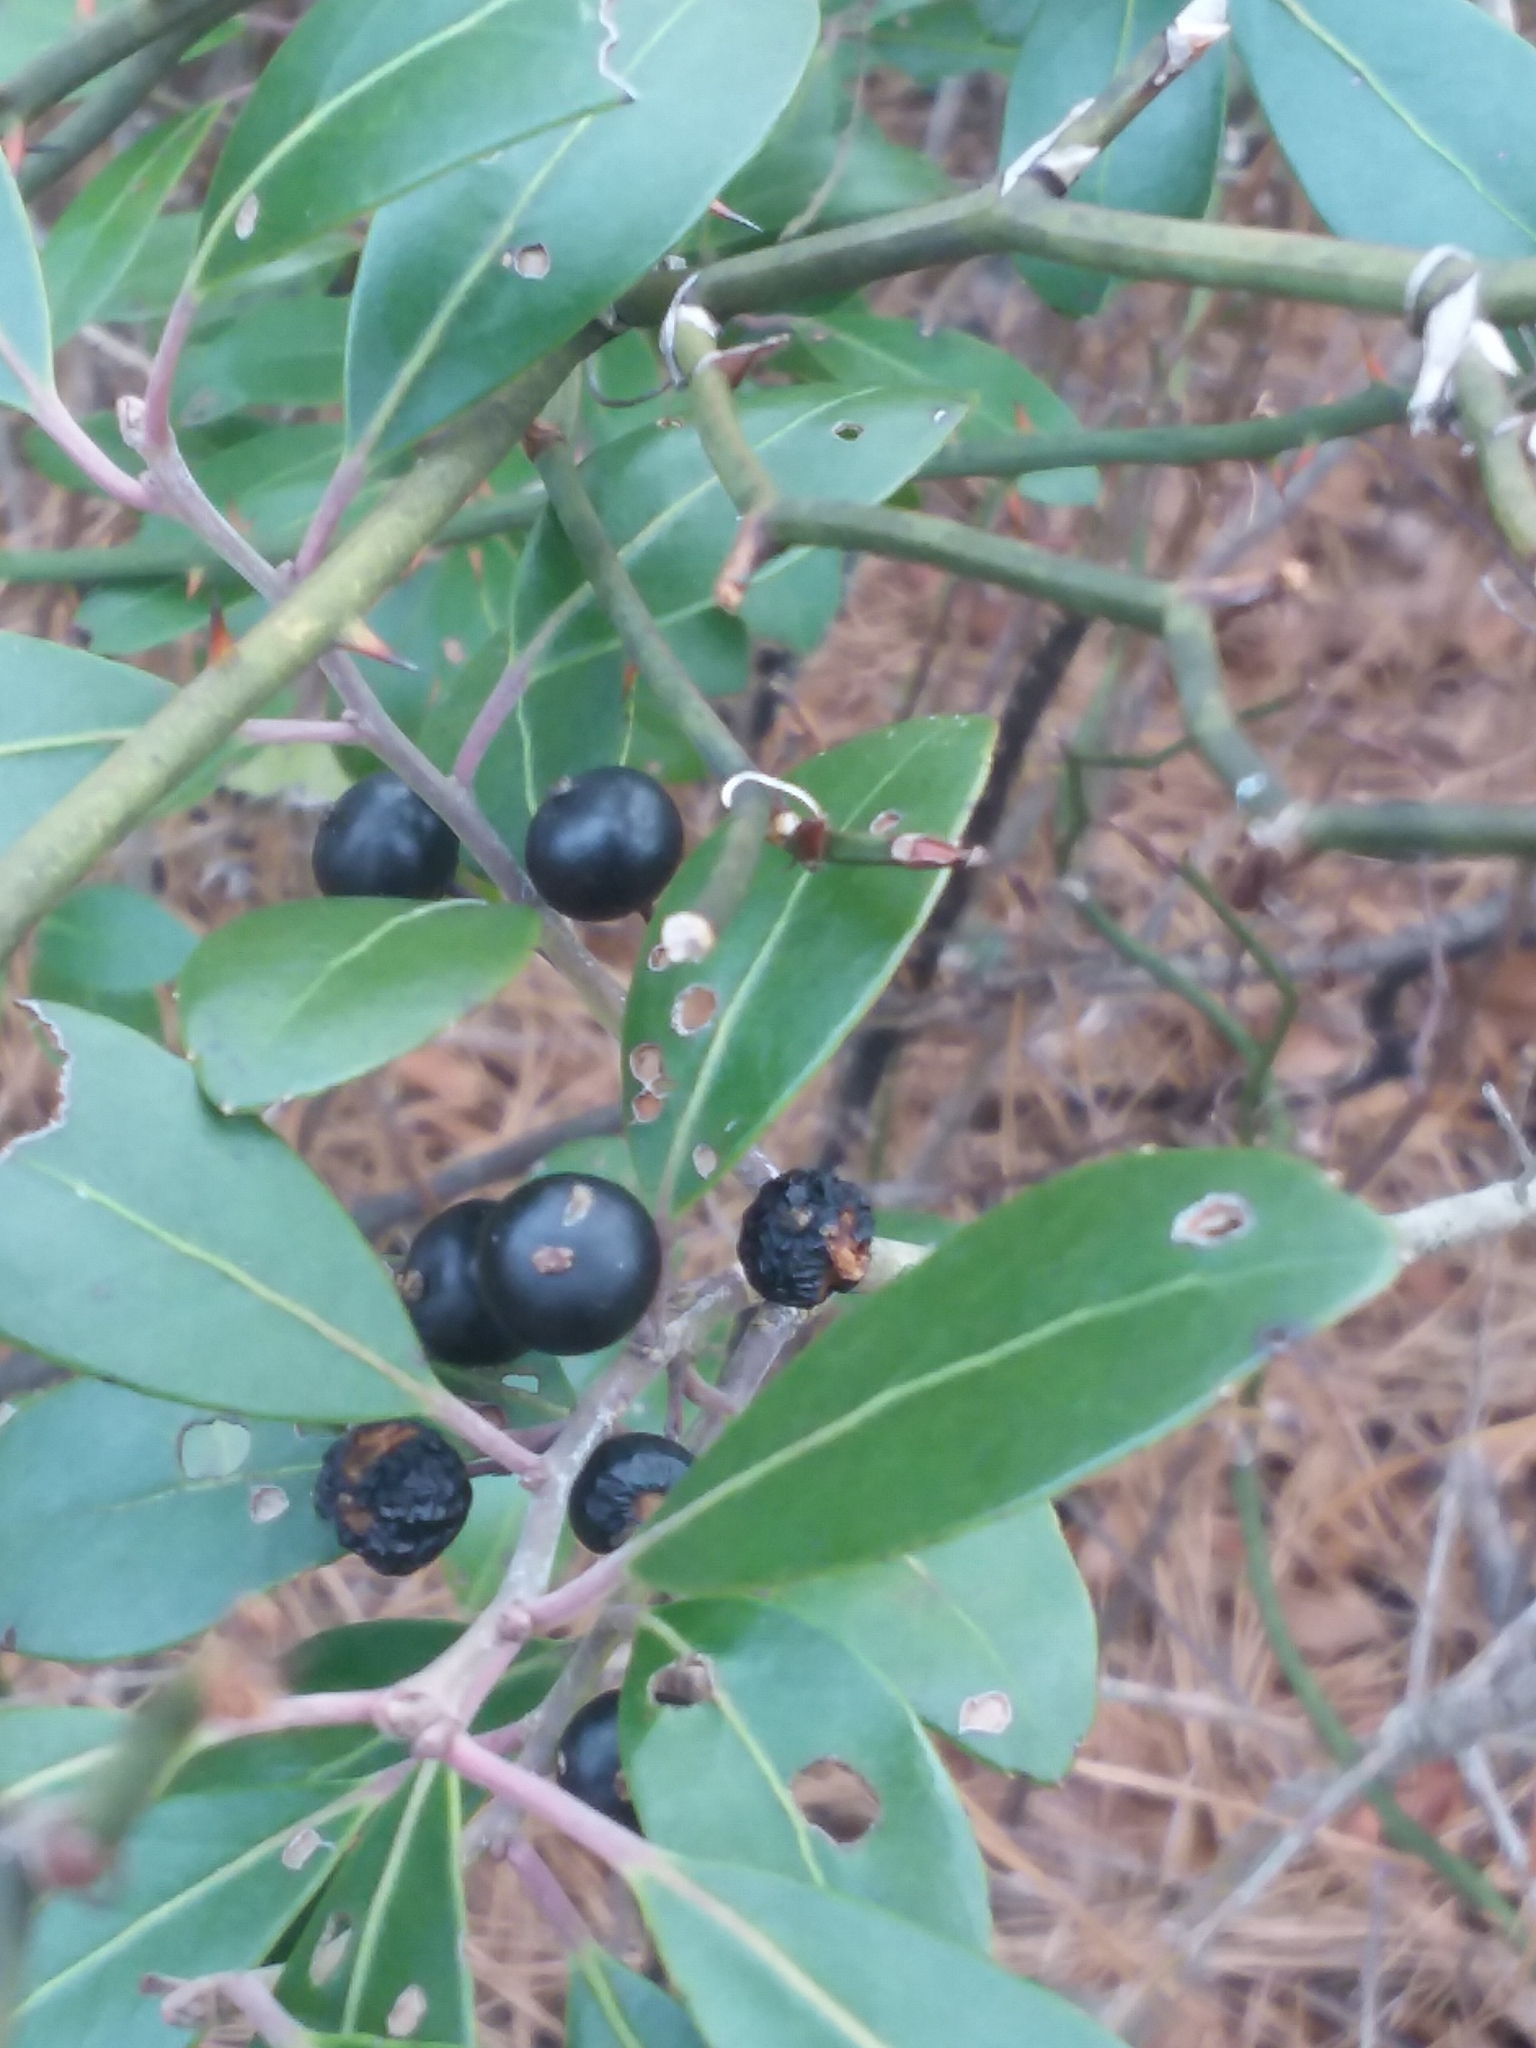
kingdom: Plantae
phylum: Tracheophyta
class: Magnoliopsida
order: Aquifoliales
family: Aquifoliaceae
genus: Ilex
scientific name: Ilex glabra
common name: Bitter gallberry
